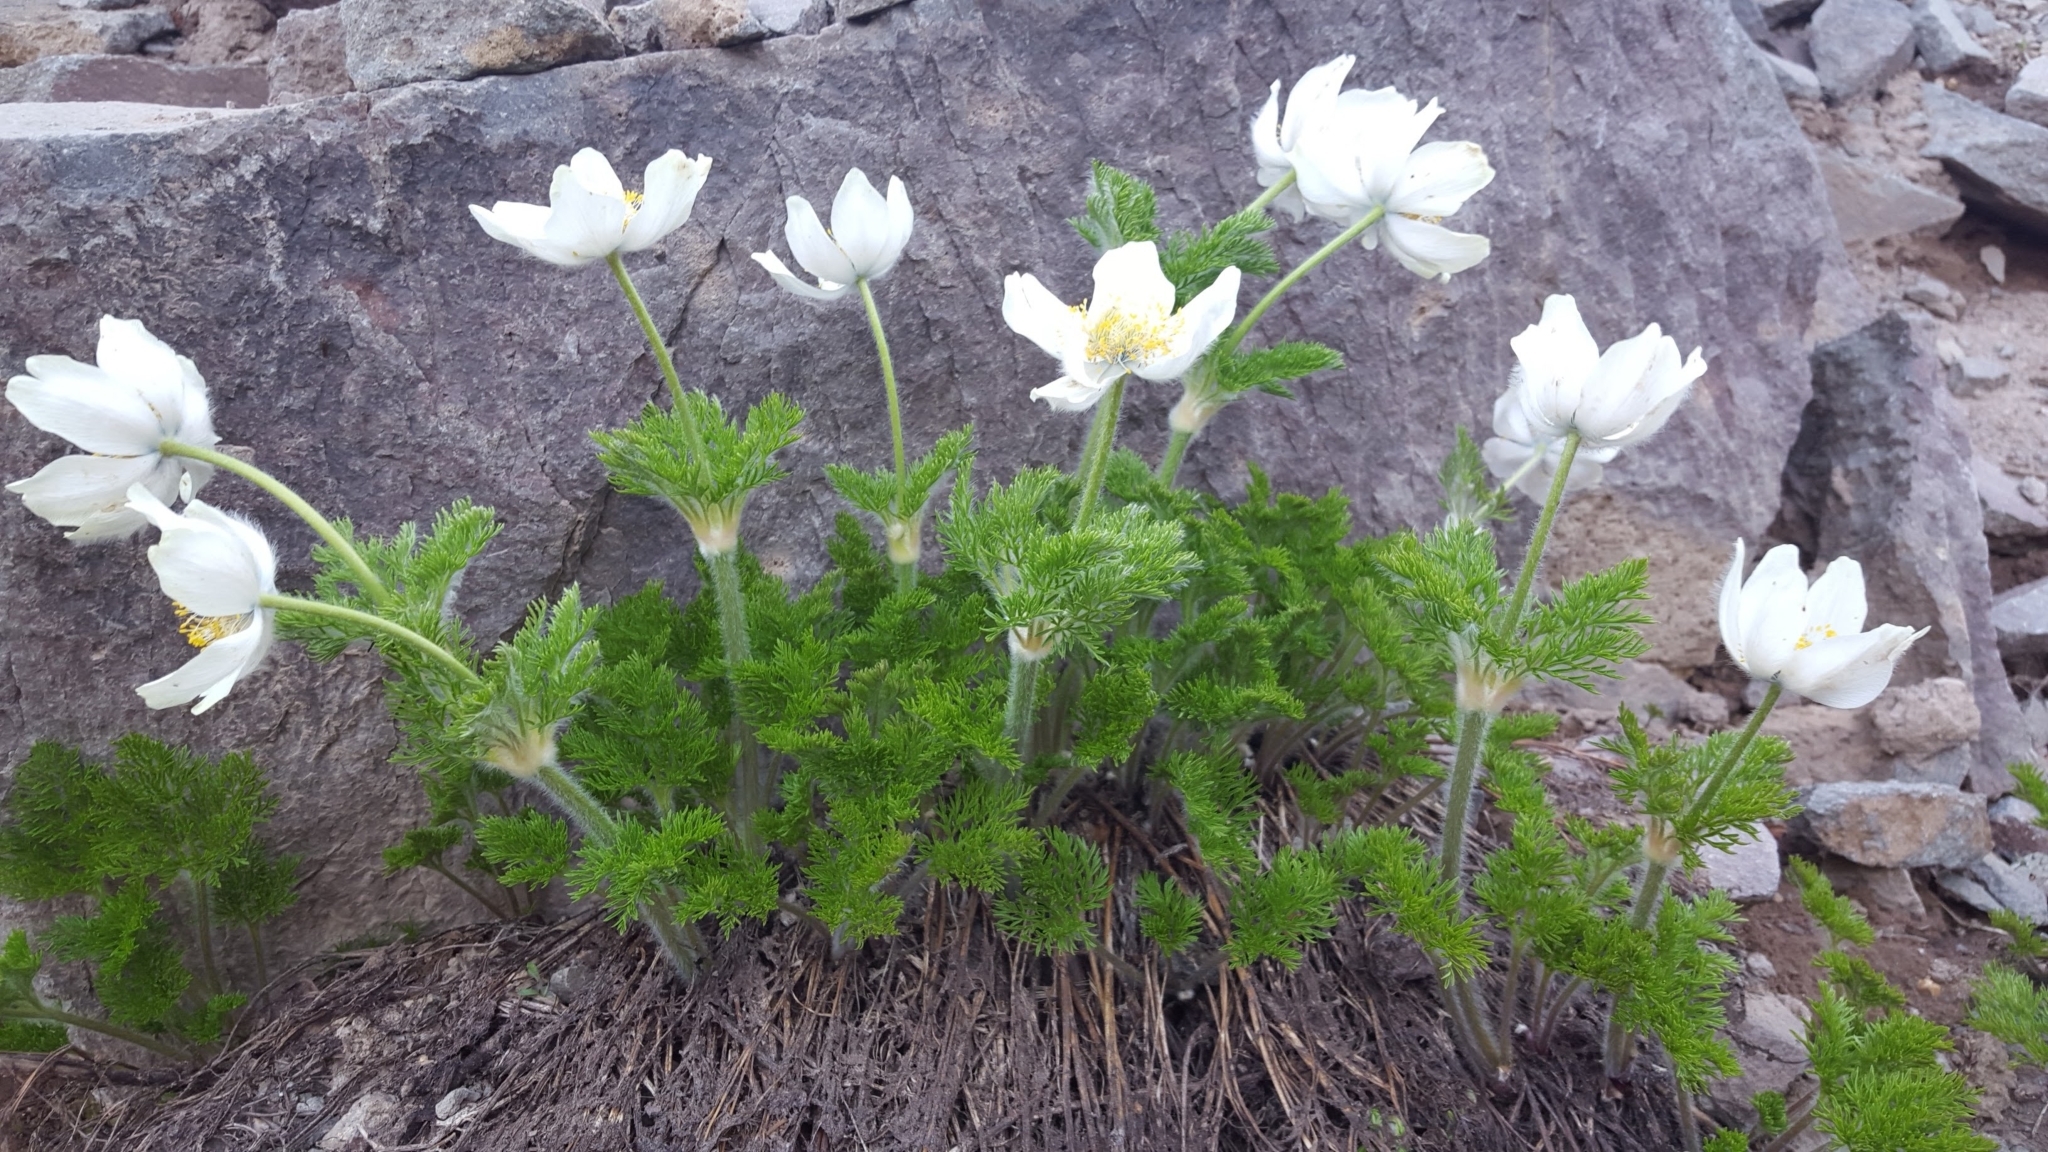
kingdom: Plantae
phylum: Tracheophyta
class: Magnoliopsida
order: Ranunculales
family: Ranunculaceae
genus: Pulsatilla
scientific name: Pulsatilla occidentalis
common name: Mountain pasqueflower
